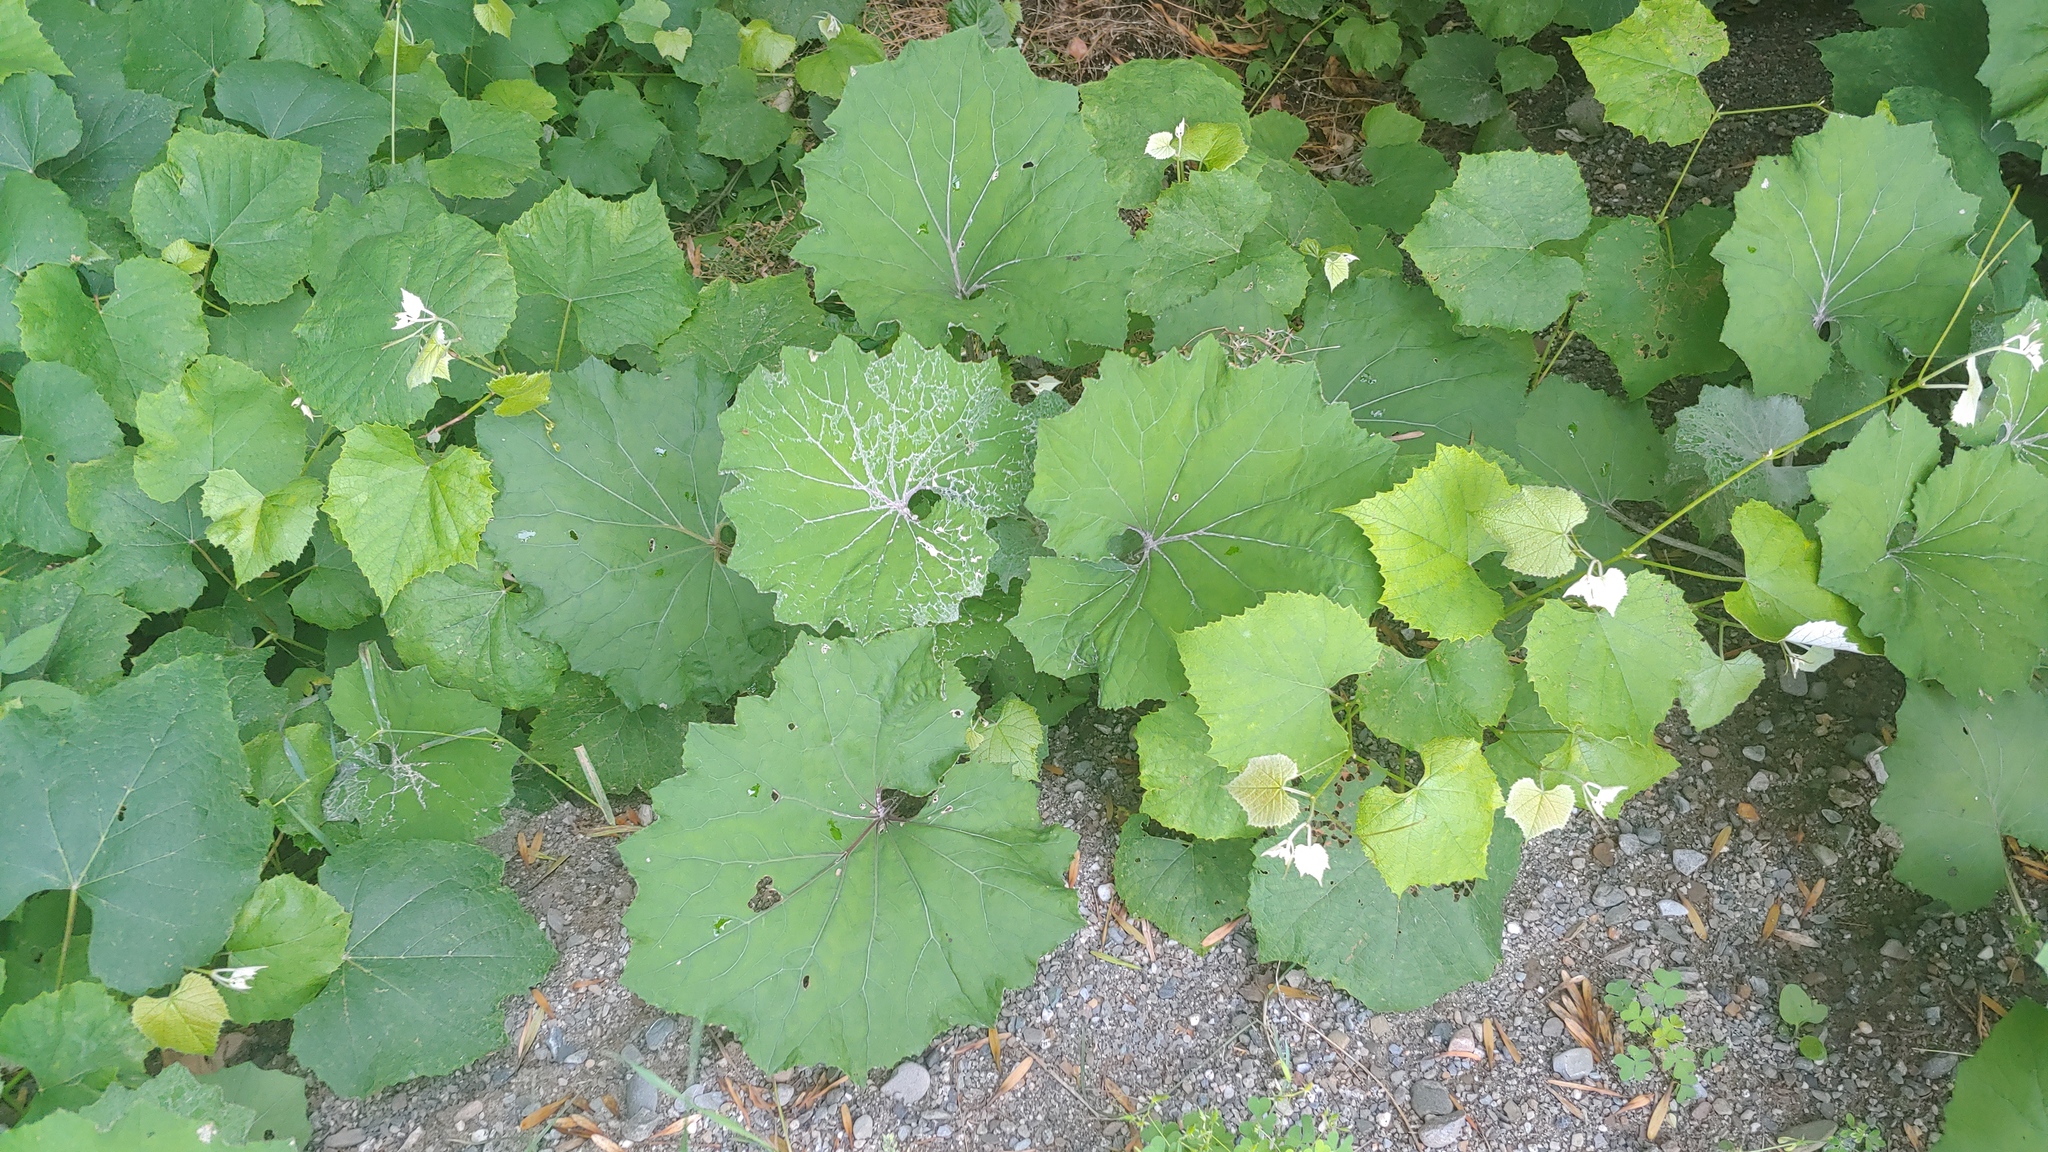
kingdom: Plantae
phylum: Tracheophyta
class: Magnoliopsida
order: Asterales
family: Asteraceae
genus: Tussilago
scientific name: Tussilago farfara
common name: Coltsfoot
